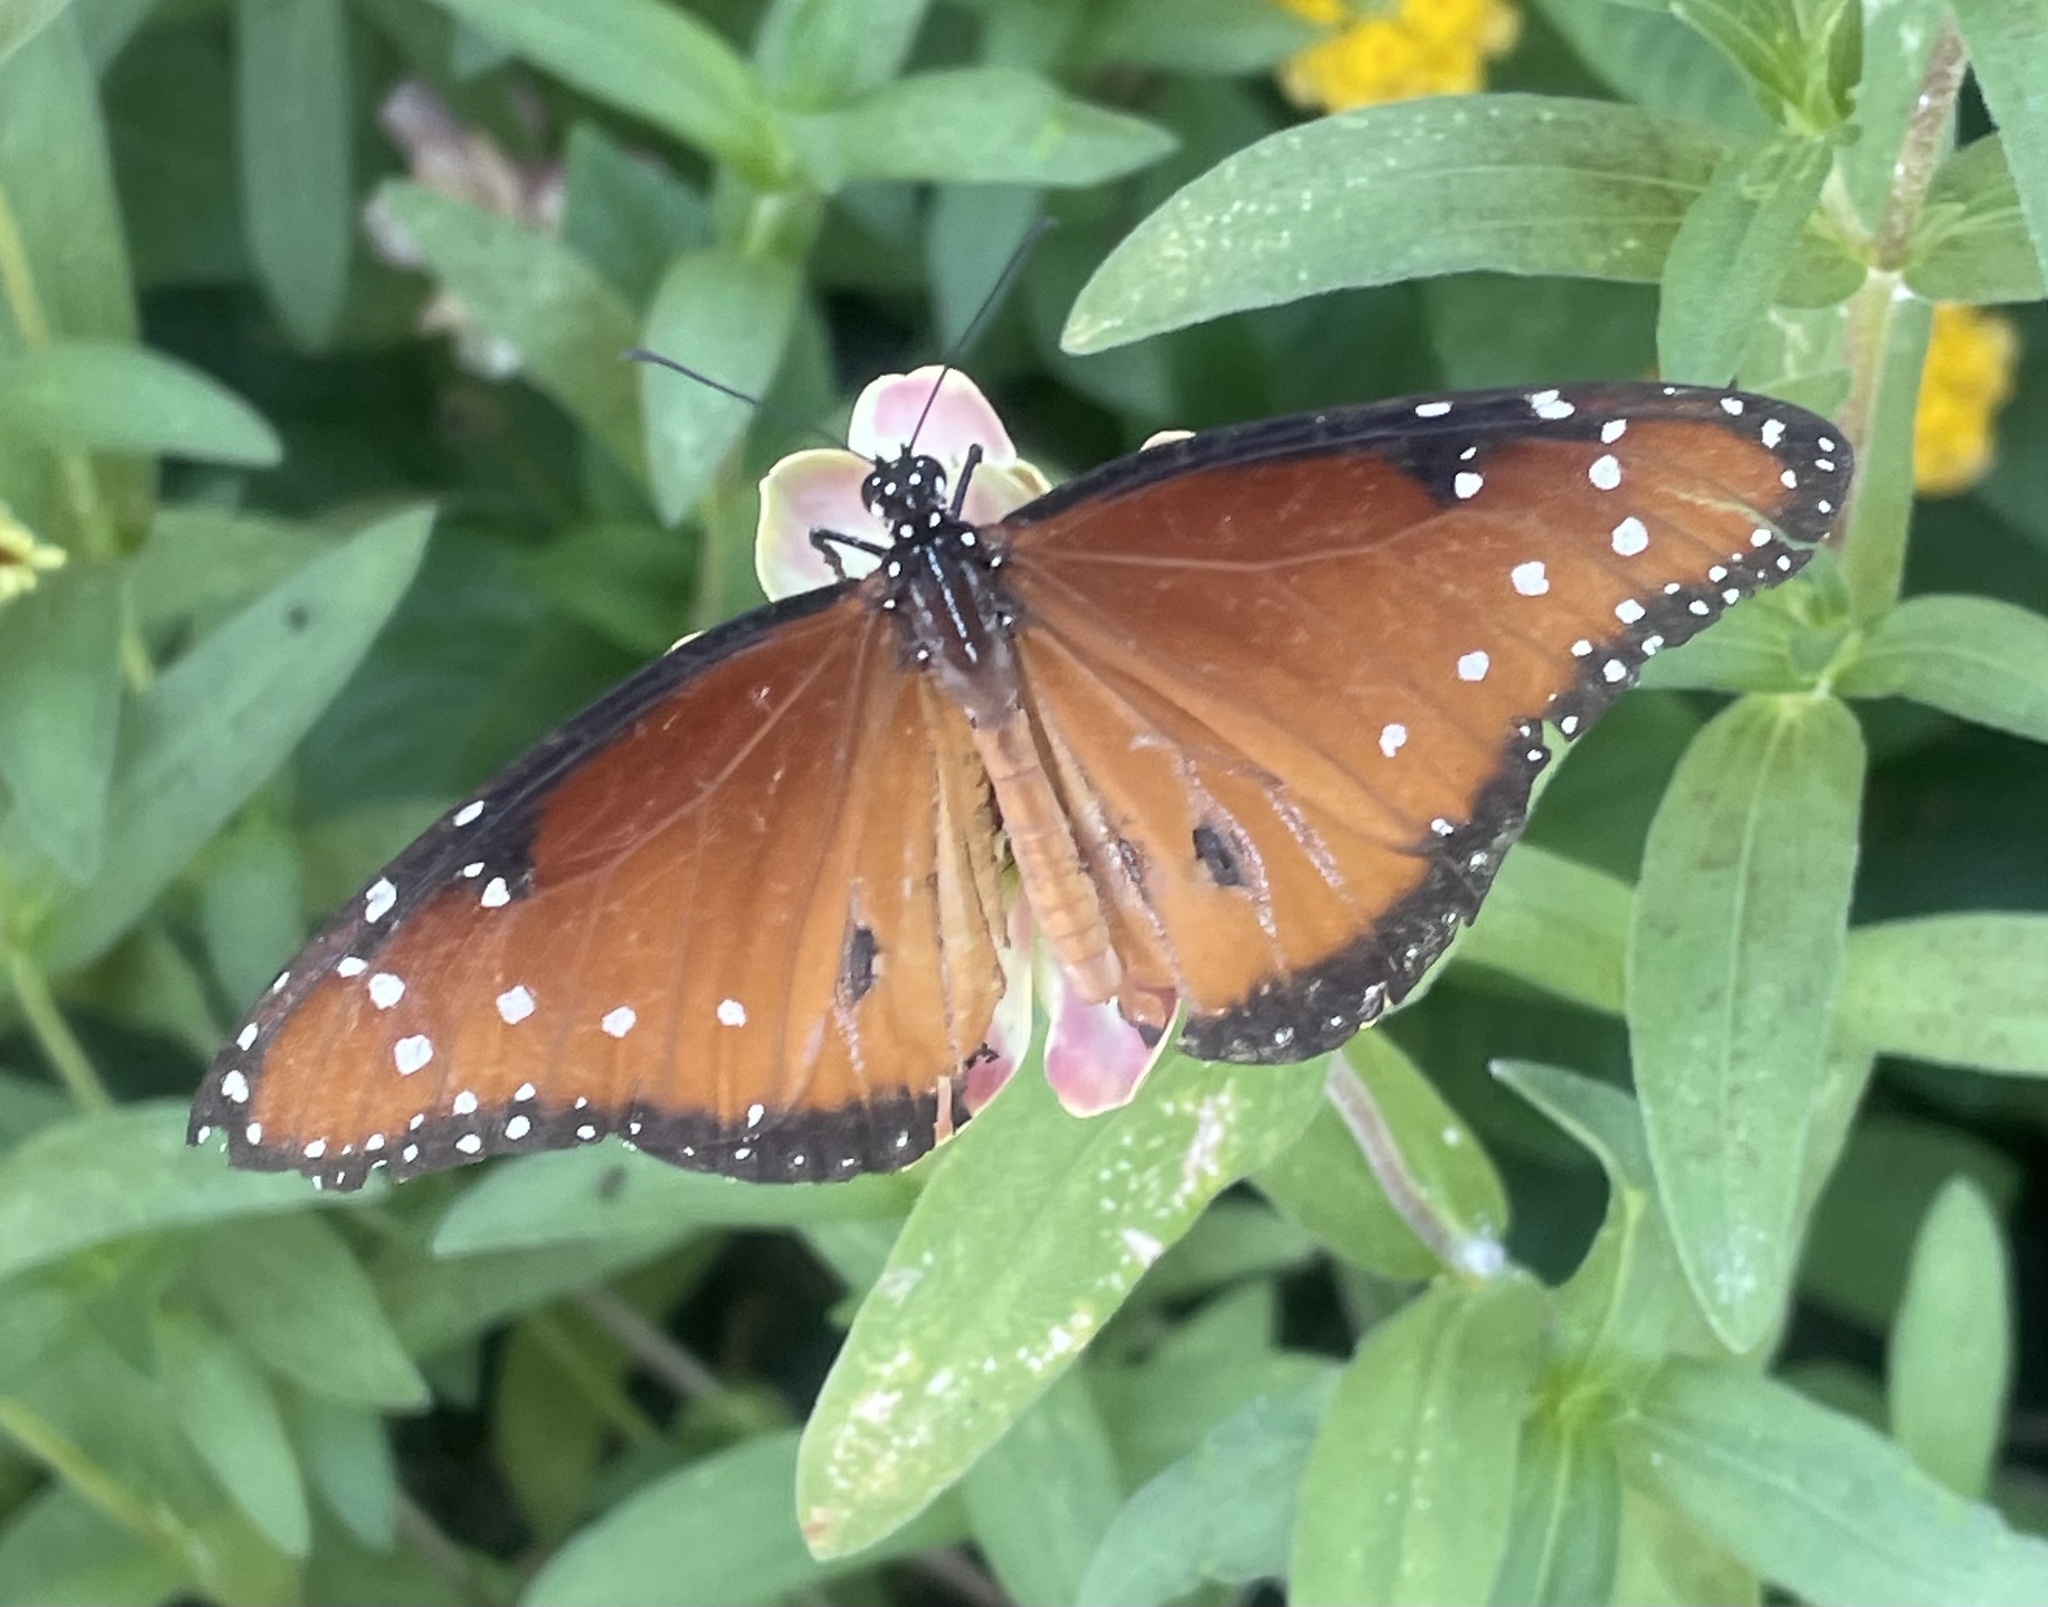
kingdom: Animalia
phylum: Arthropoda
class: Insecta
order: Lepidoptera
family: Nymphalidae
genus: Danaus
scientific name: Danaus gilippus
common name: Queen
